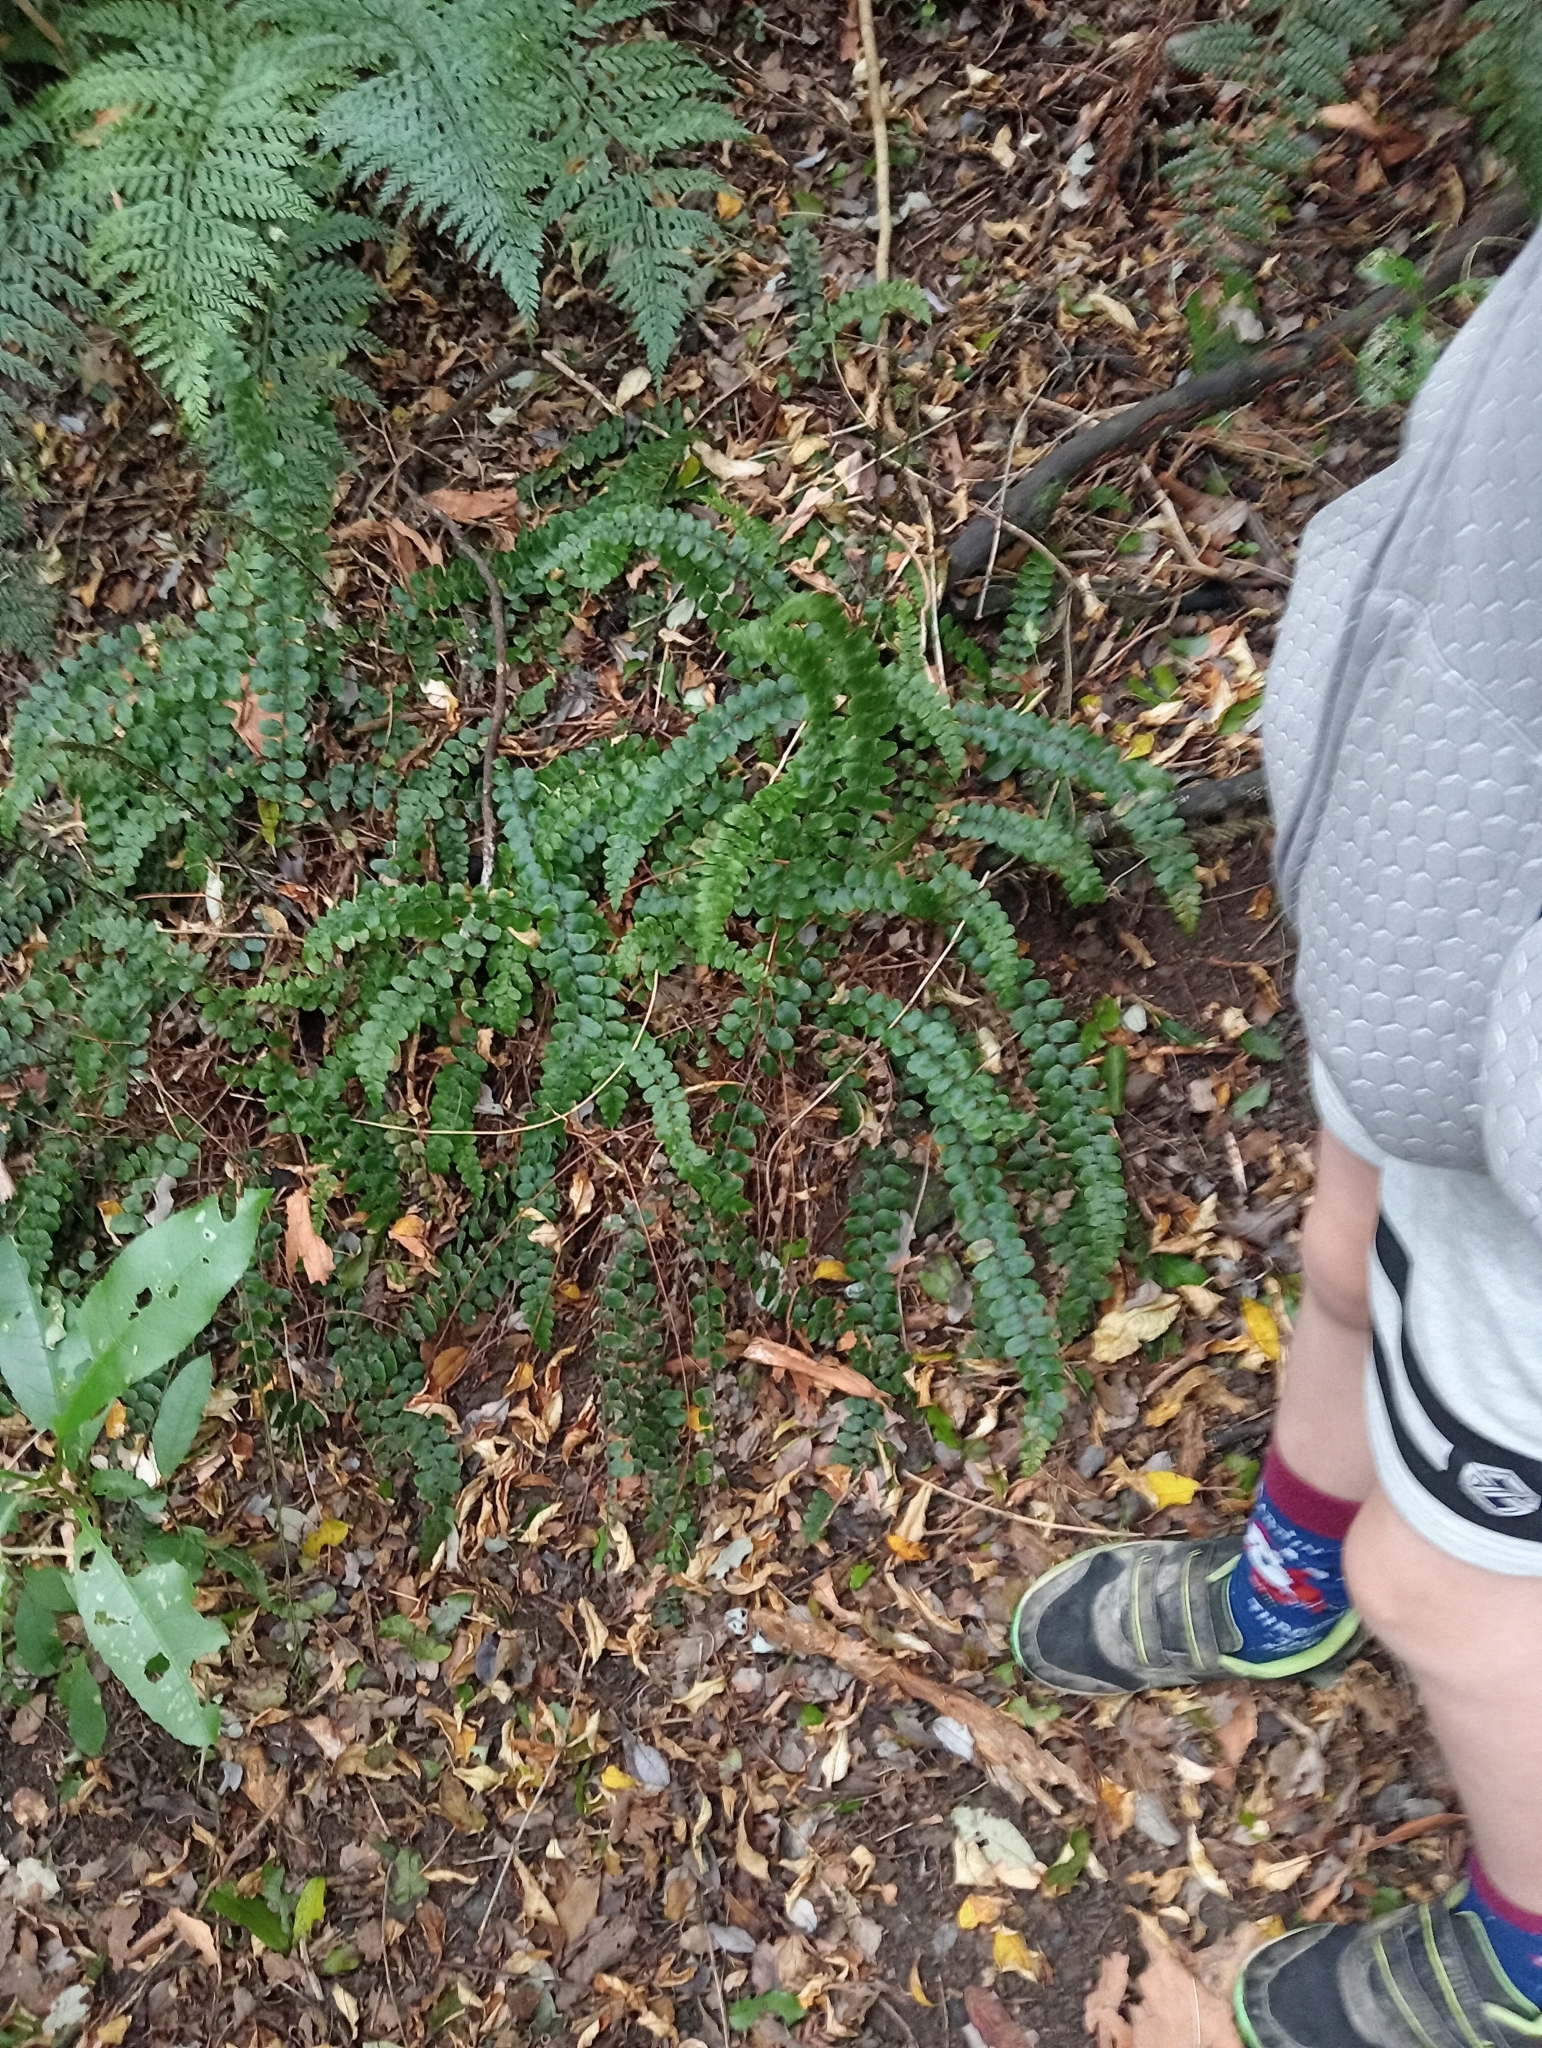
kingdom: Plantae
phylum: Tracheophyta
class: Polypodiopsida
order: Polypodiales
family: Blechnaceae
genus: Cranfillia
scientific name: Cranfillia fluviatilis
